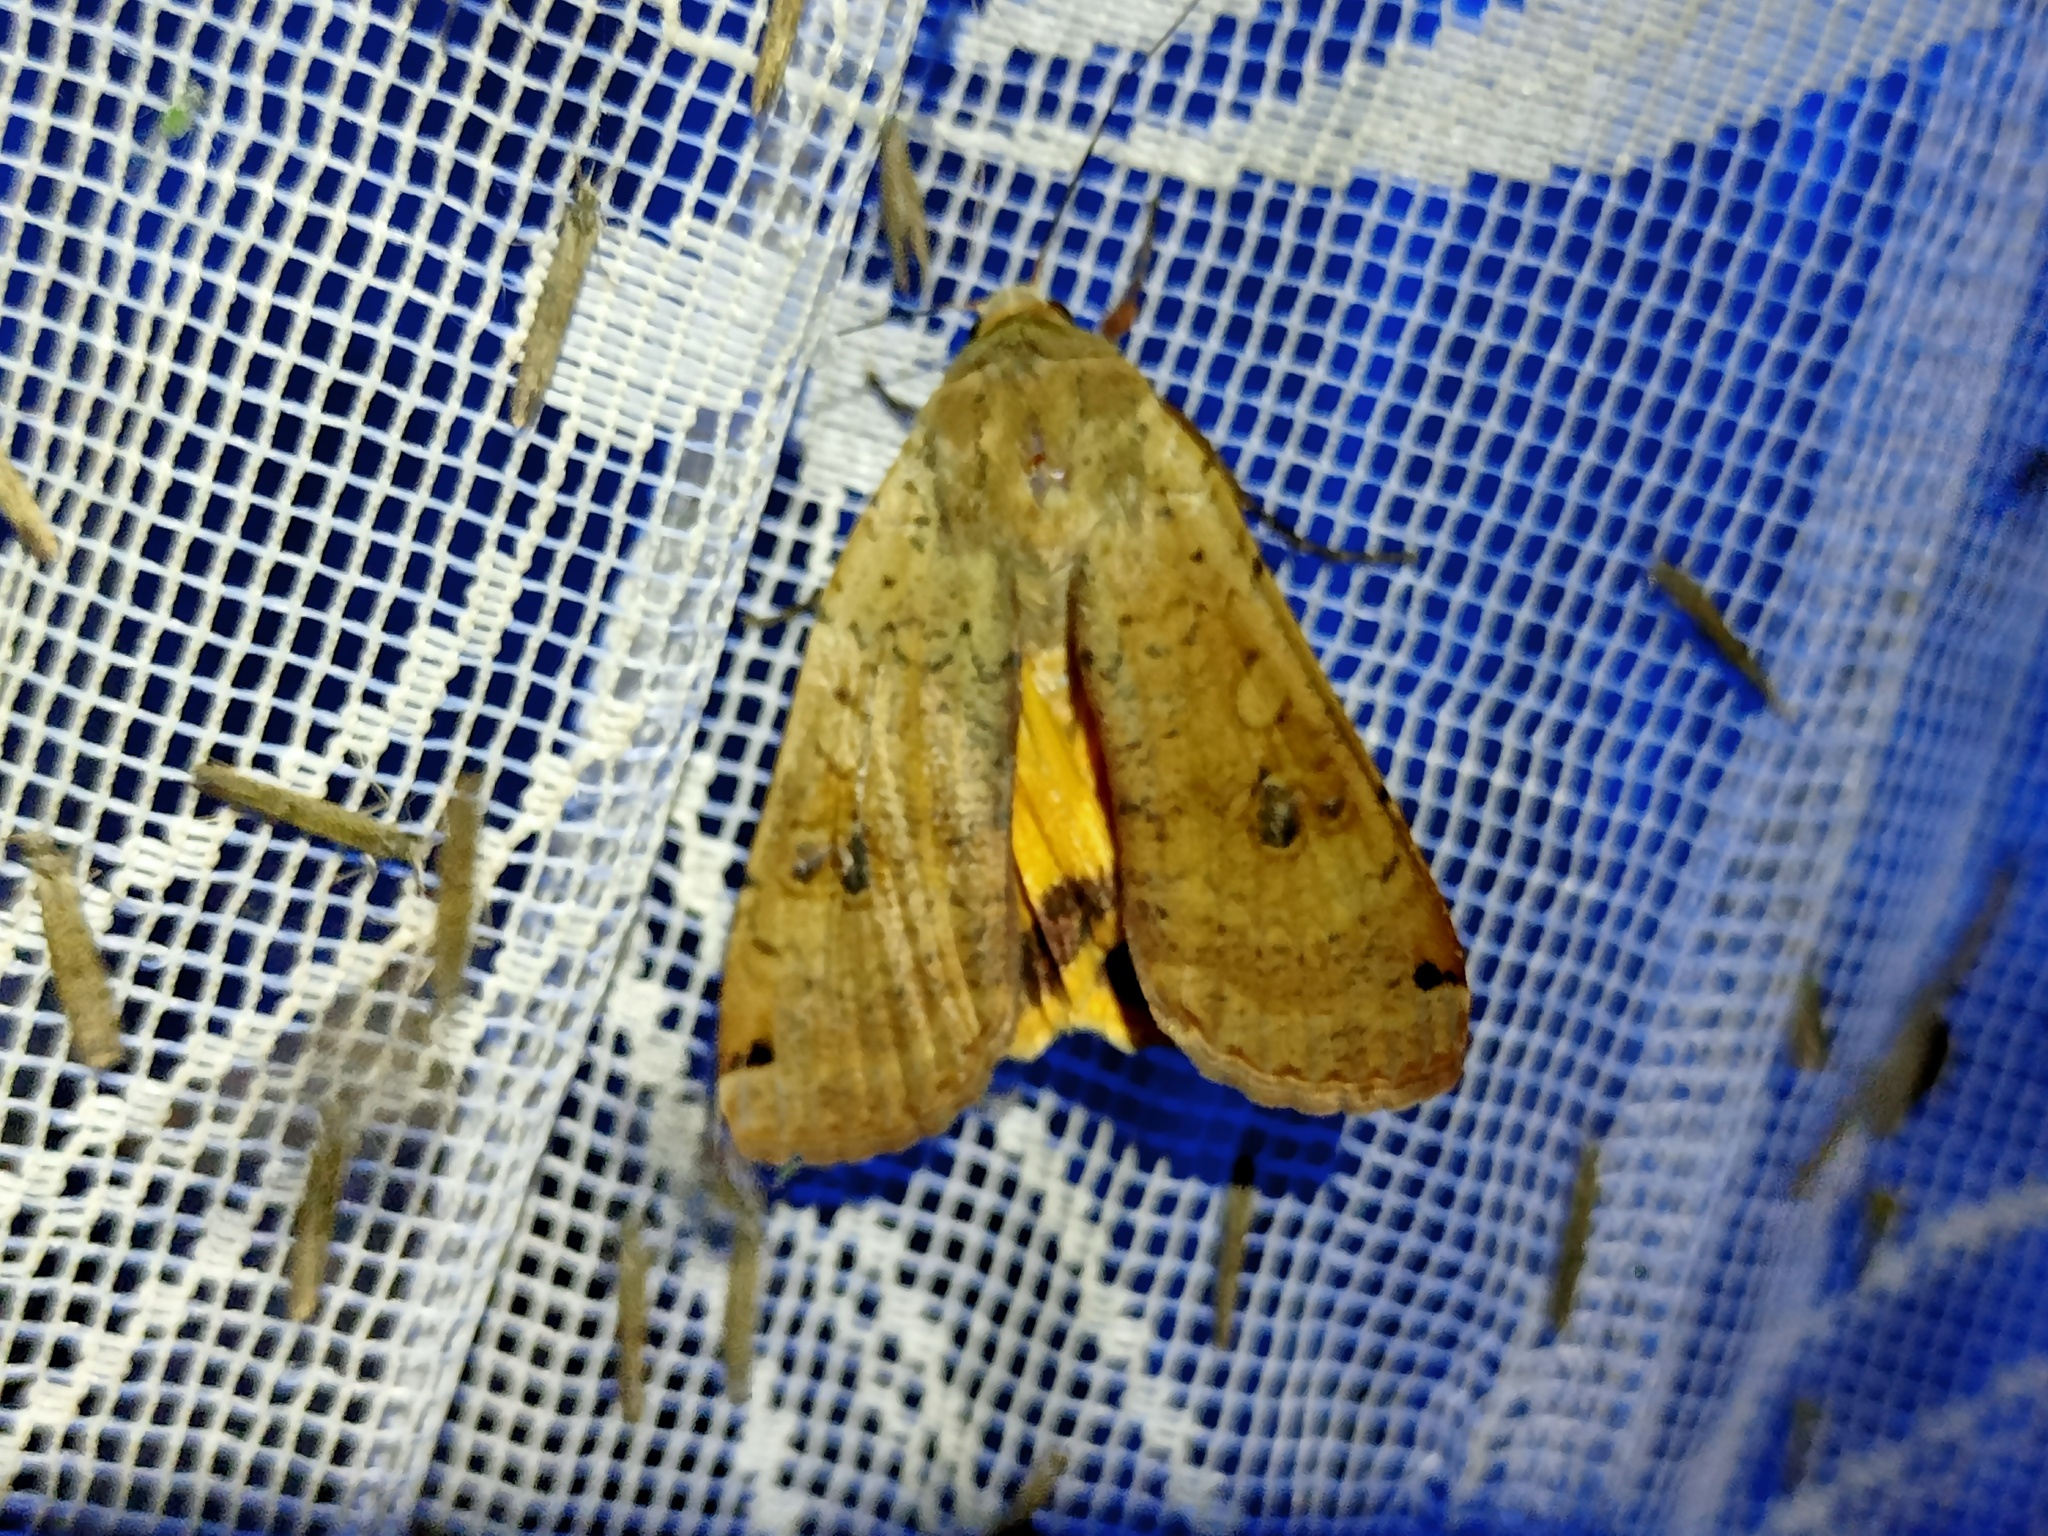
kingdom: Animalia
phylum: Arthropoda
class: Insecta
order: Lepidoptera
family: Noctuidae
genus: Noctua
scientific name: Noctua pronuba
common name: Large yellow underwing
